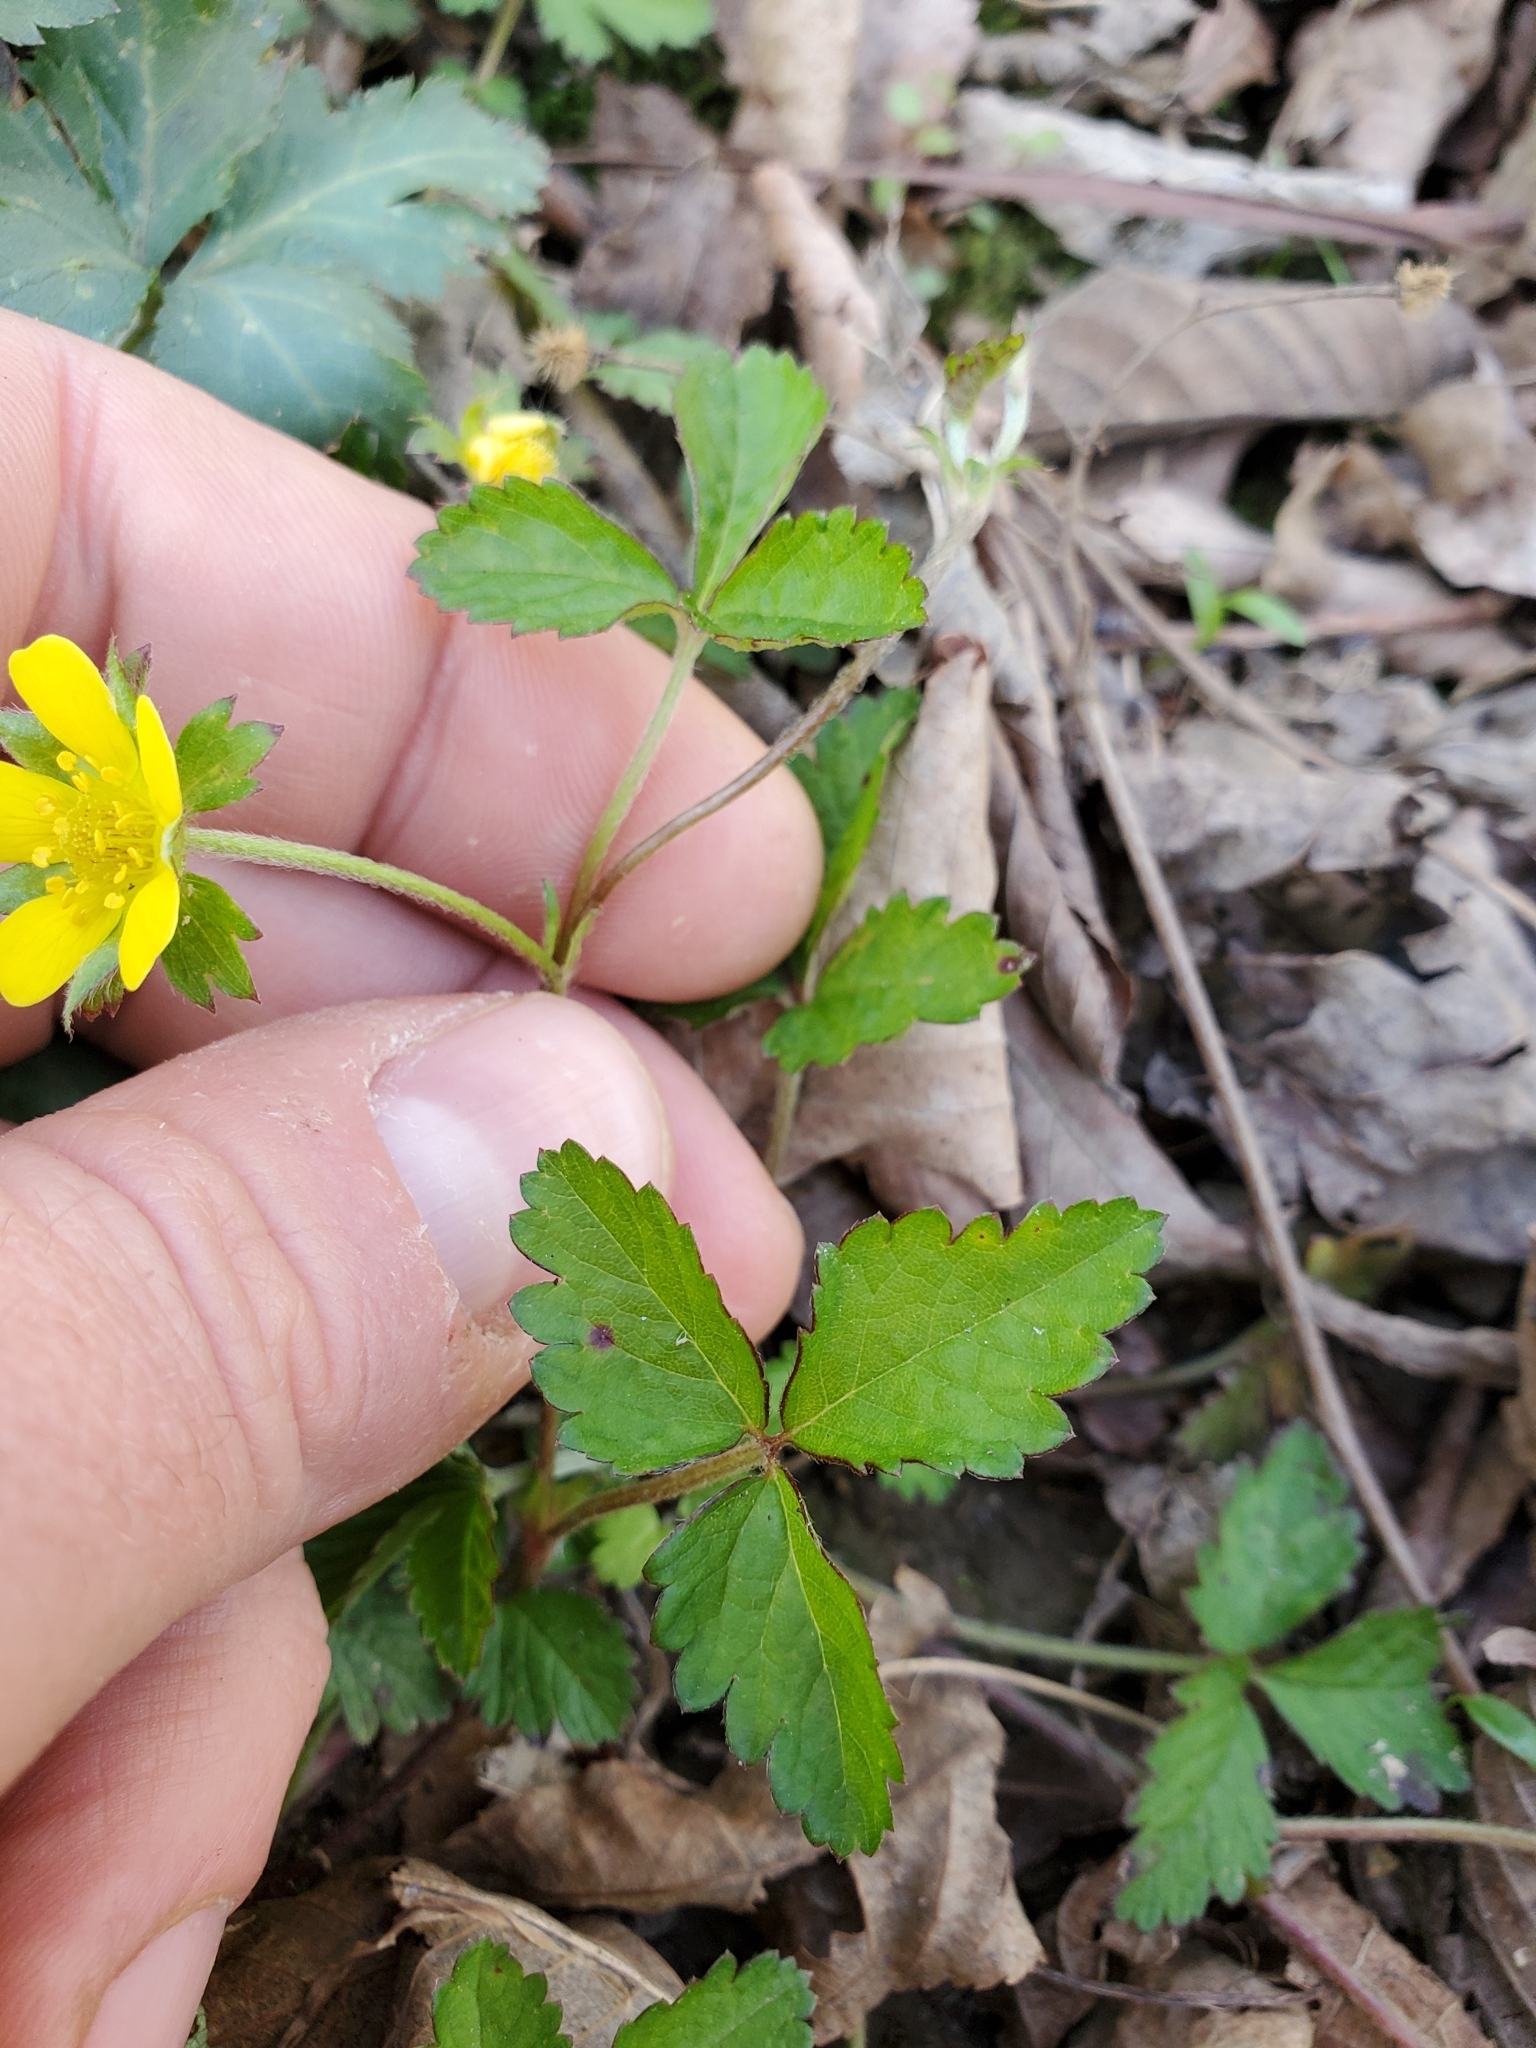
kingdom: Plantae
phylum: Tracheophyta
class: Magnoliopsida
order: Rosales
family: Rosaceae
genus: Potentilla
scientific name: Potentilla indica
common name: Yellow-flowered strawberry
